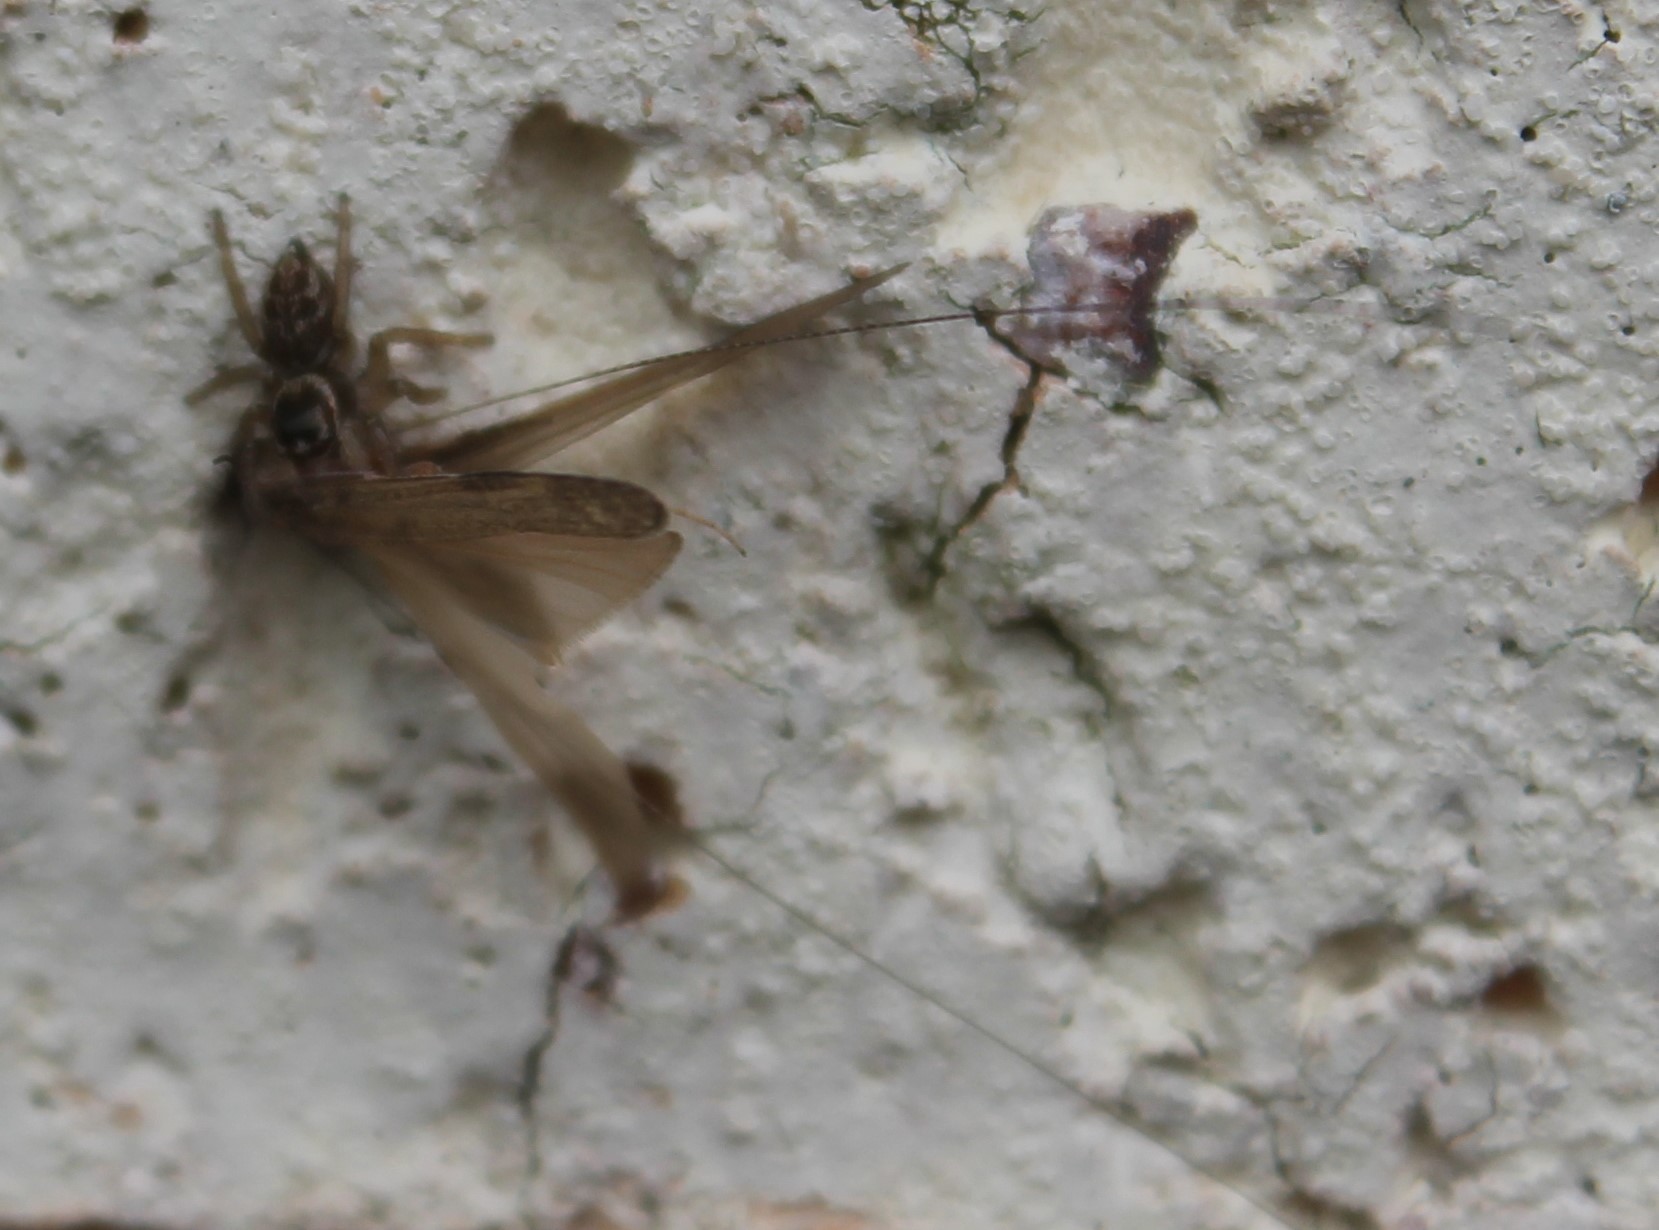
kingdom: Animalia
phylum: Arthropoda
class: Arachnida
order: Araneae
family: Salticidae
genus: Maratus
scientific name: Maratus griseus
